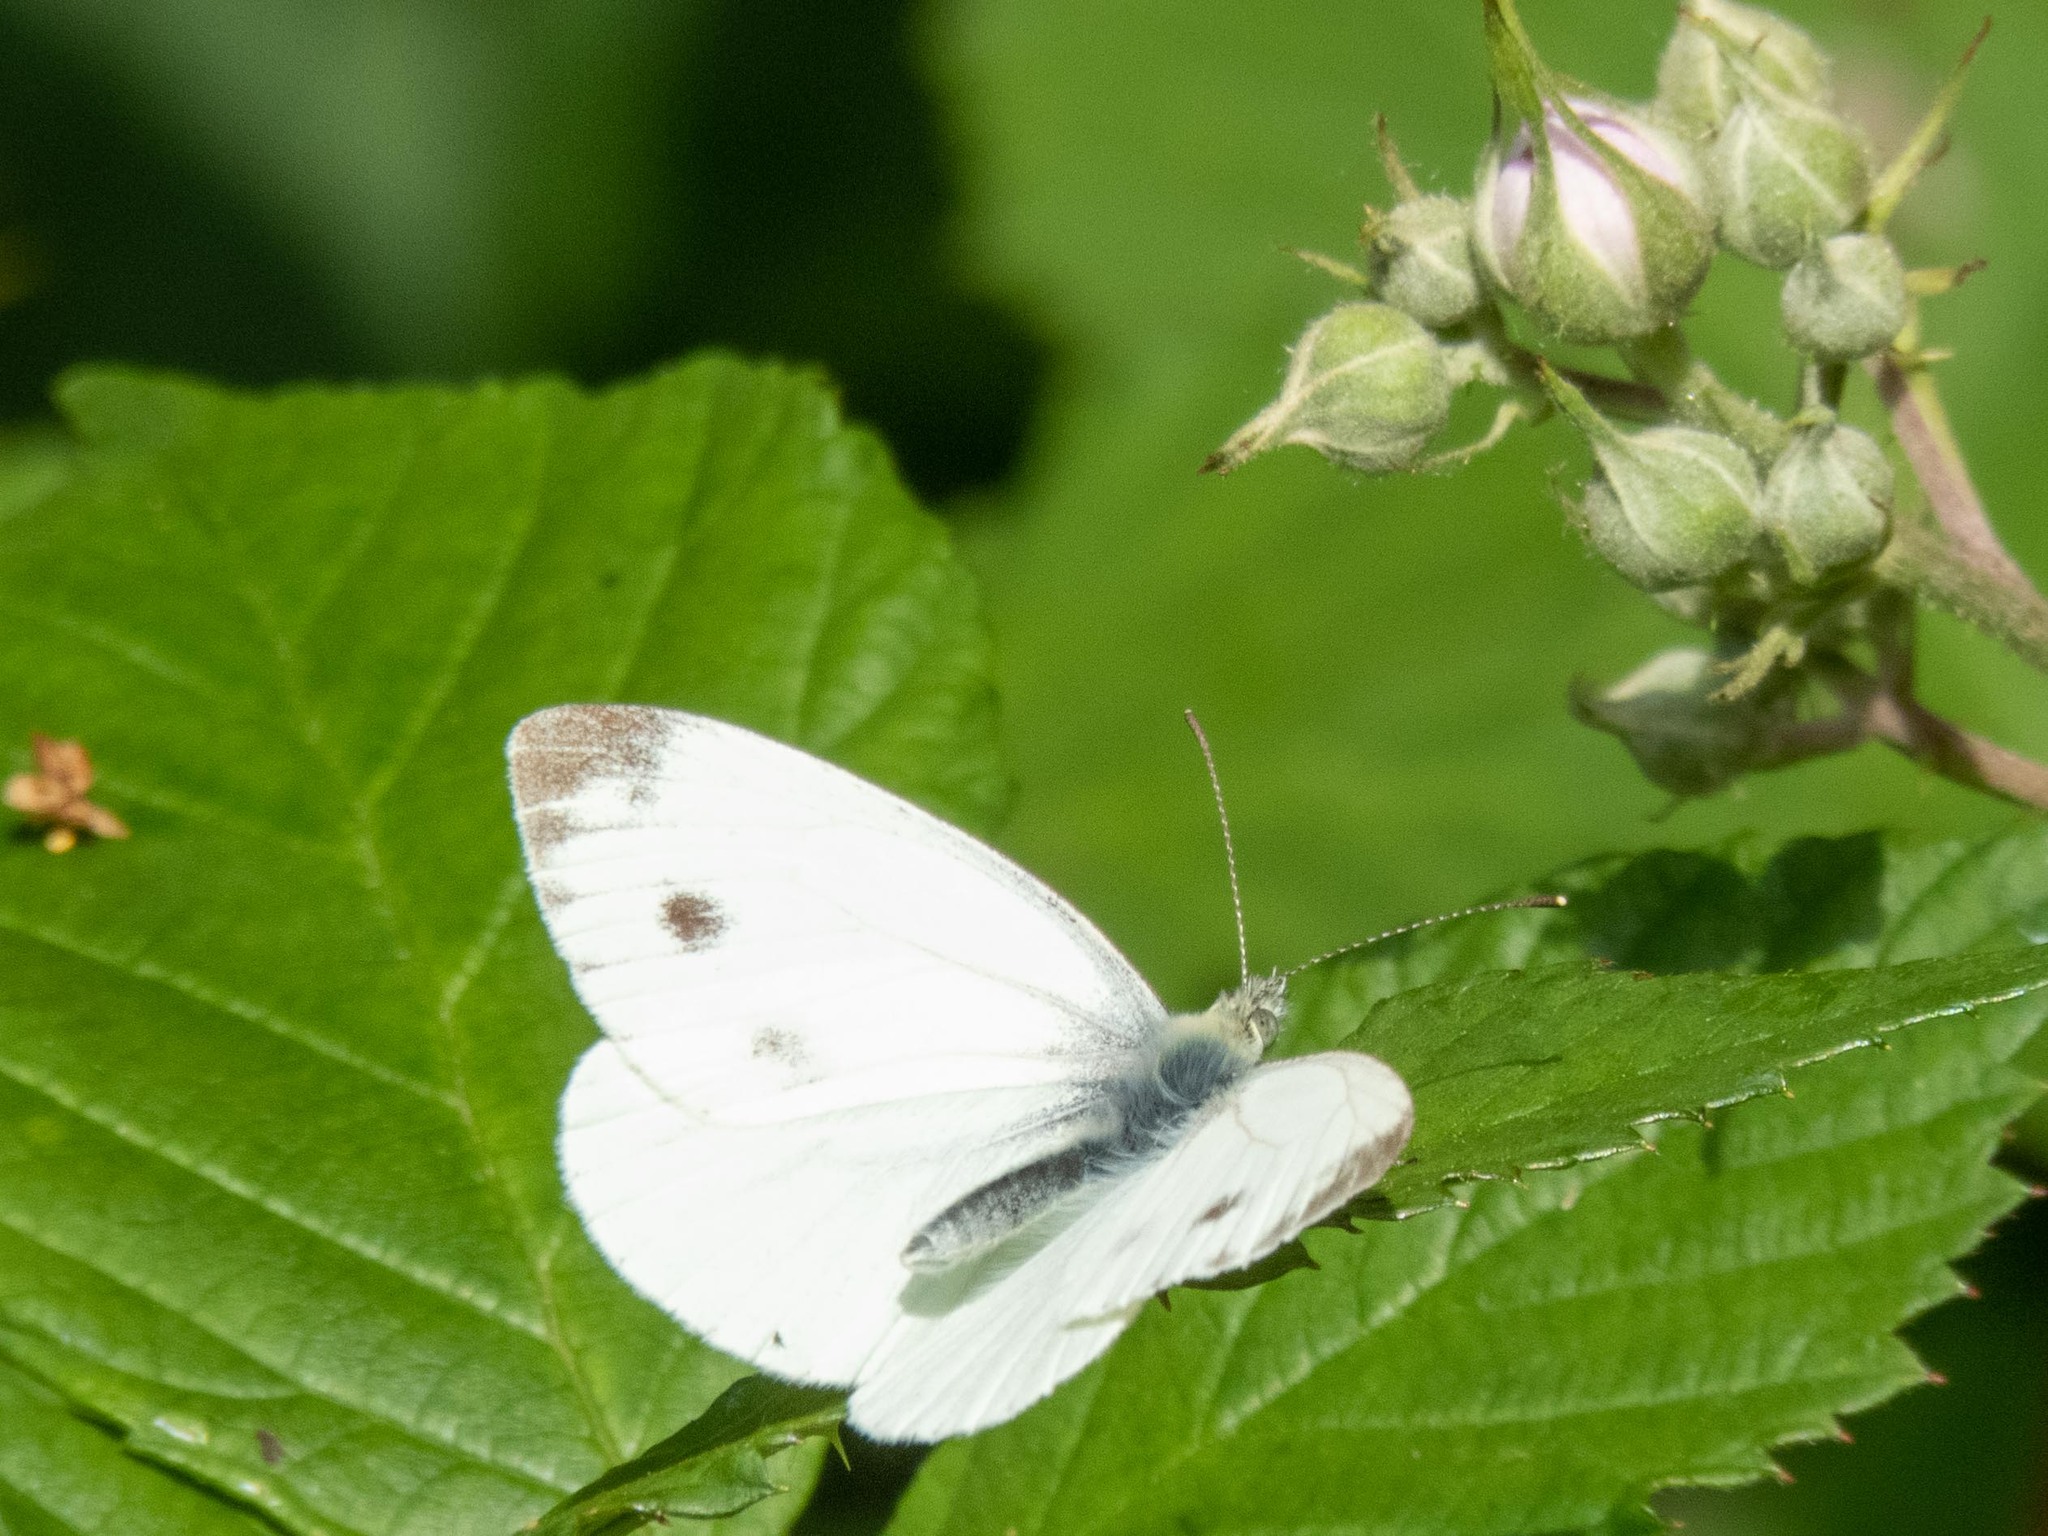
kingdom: Animalia
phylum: Arthropoda
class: Insecta
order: Lepidoptera
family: Pieridae
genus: Pieris
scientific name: Pieris napi
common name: Green-veined white
